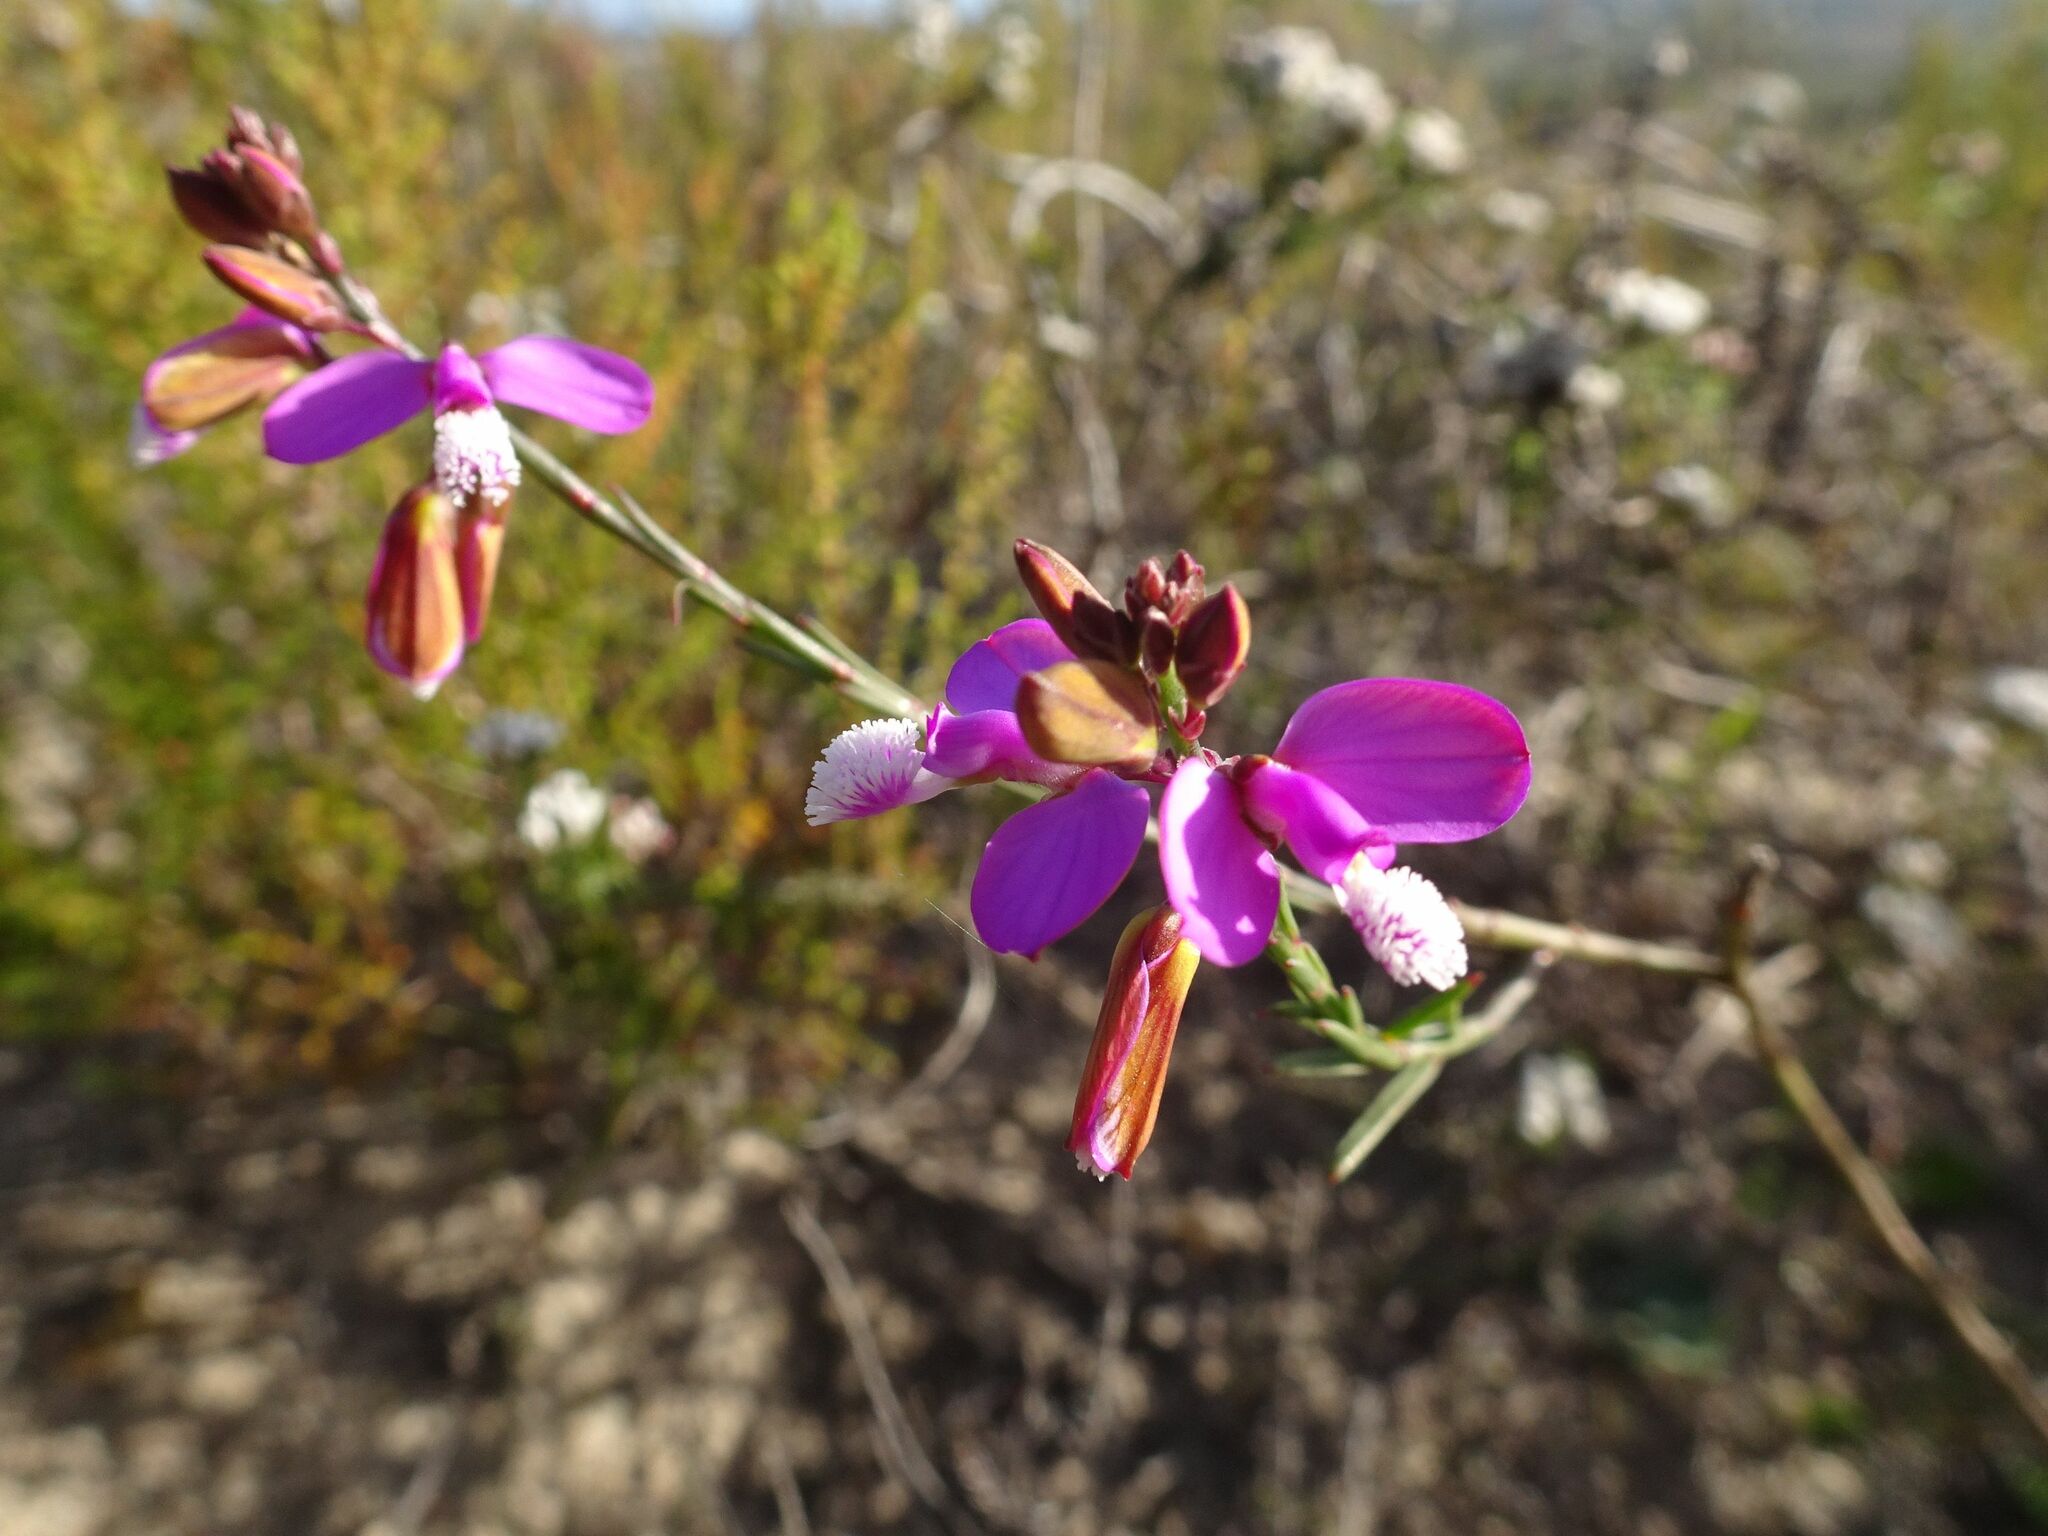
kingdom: Plantae
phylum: Tracheophyta
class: Magnoliopsida
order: Fabales
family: Polygalaceae
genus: Polygala
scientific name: Polygala garcini
